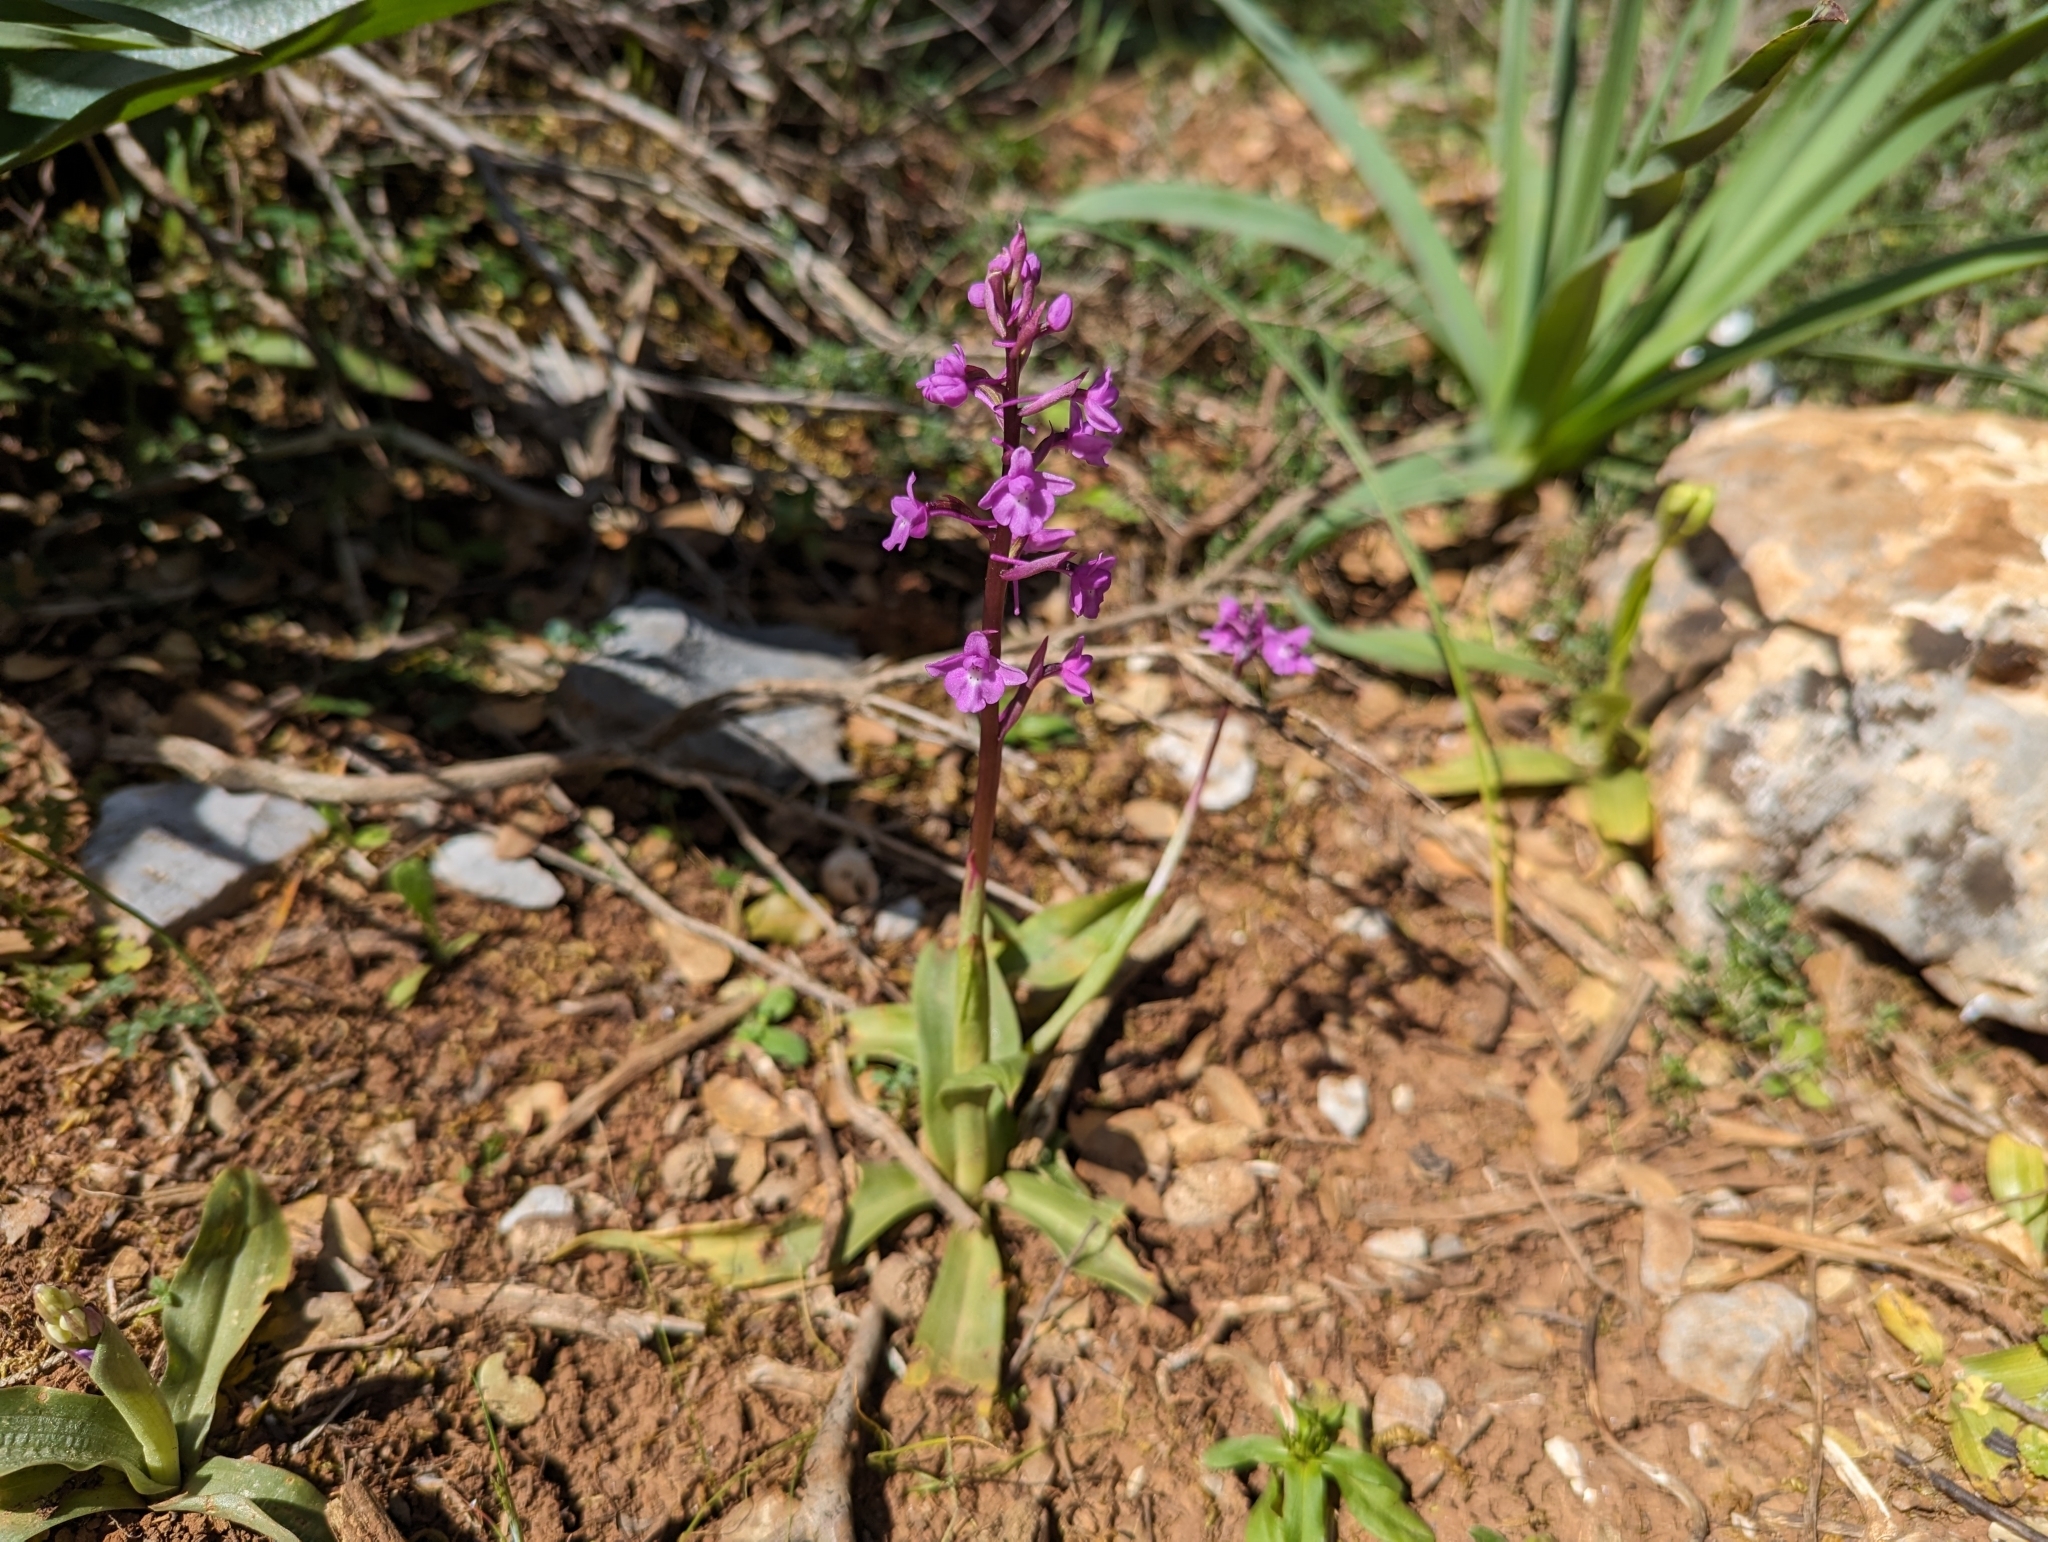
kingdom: Plantae
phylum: Tracheophyta
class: Liliopsida
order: Asparagales
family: Orchidaceae
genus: Orchis
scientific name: Orchis quadripunctata
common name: Four-spotted orchid
